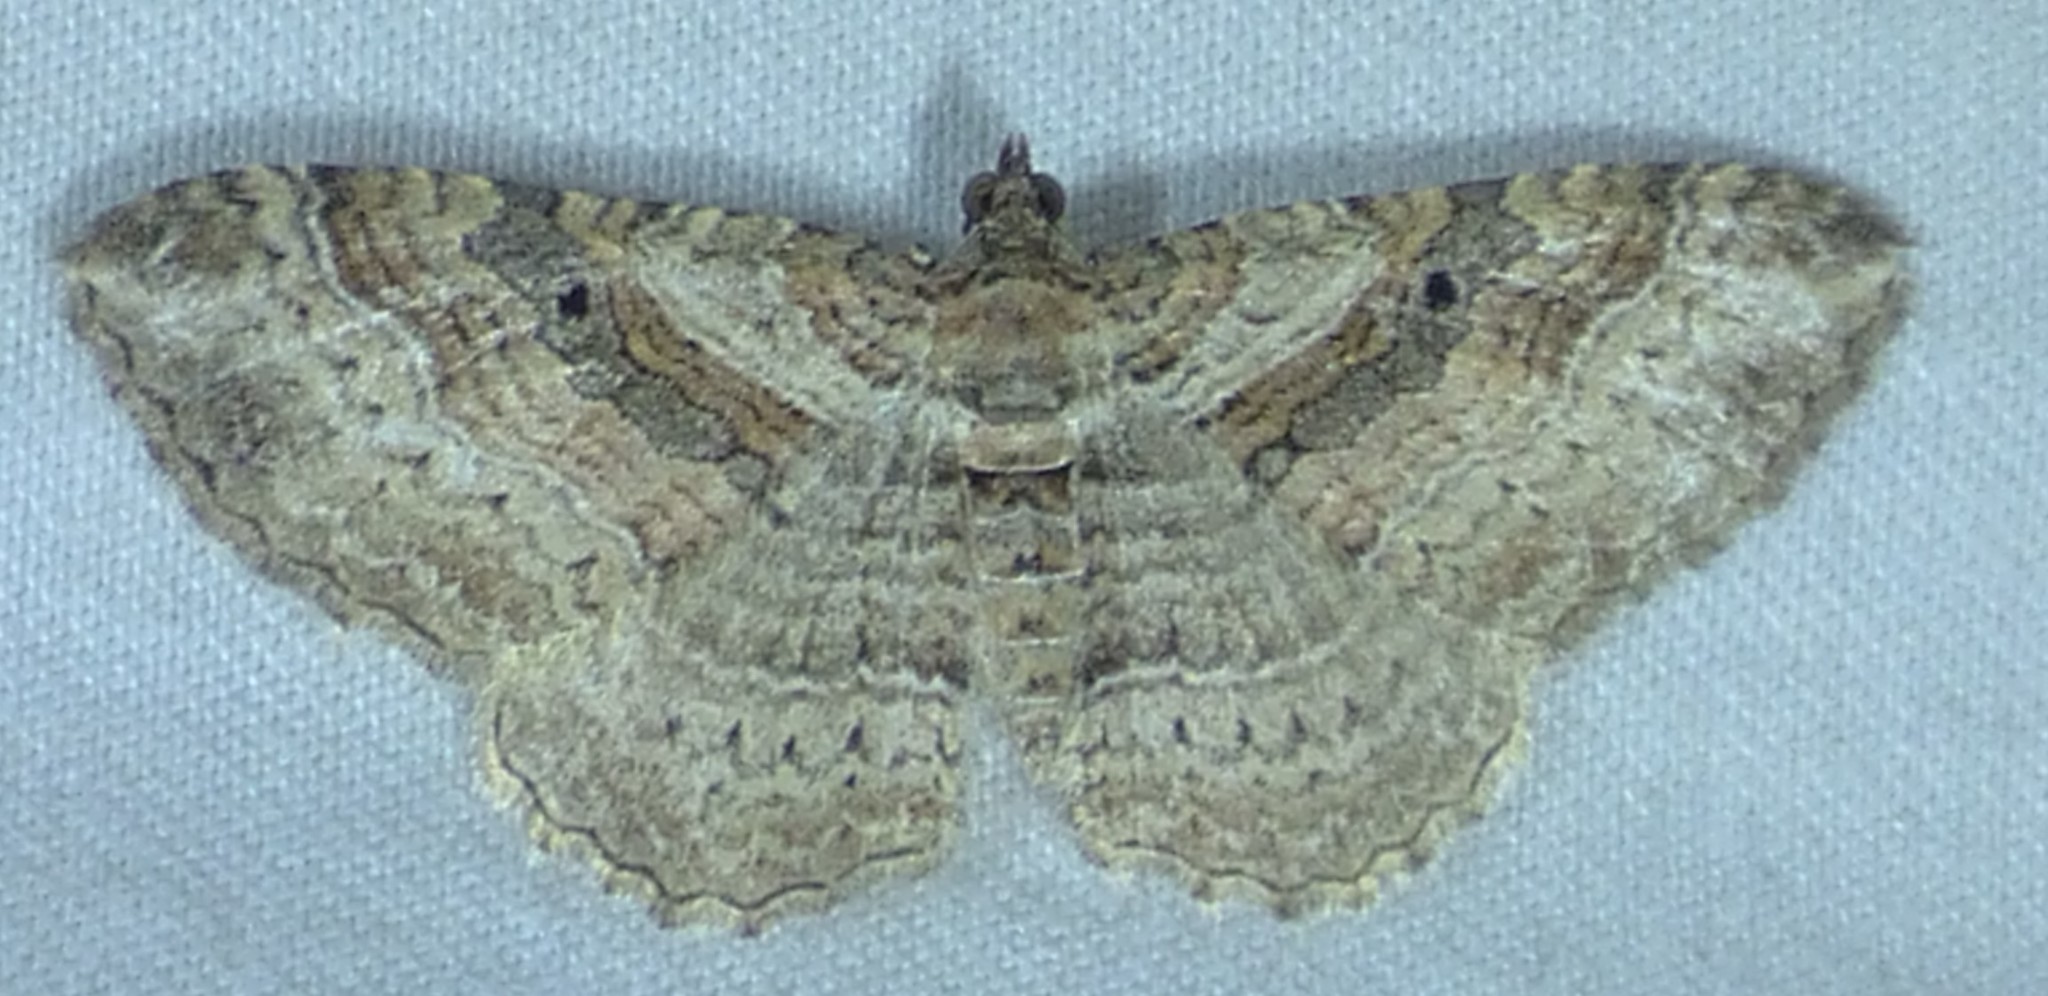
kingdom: Animalia
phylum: Arthropoda
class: Insecta
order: Lepidoptera
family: Geometridae
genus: Costaconvexa
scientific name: Costaconvexa centrostrigaria
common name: Bent-line carpet
